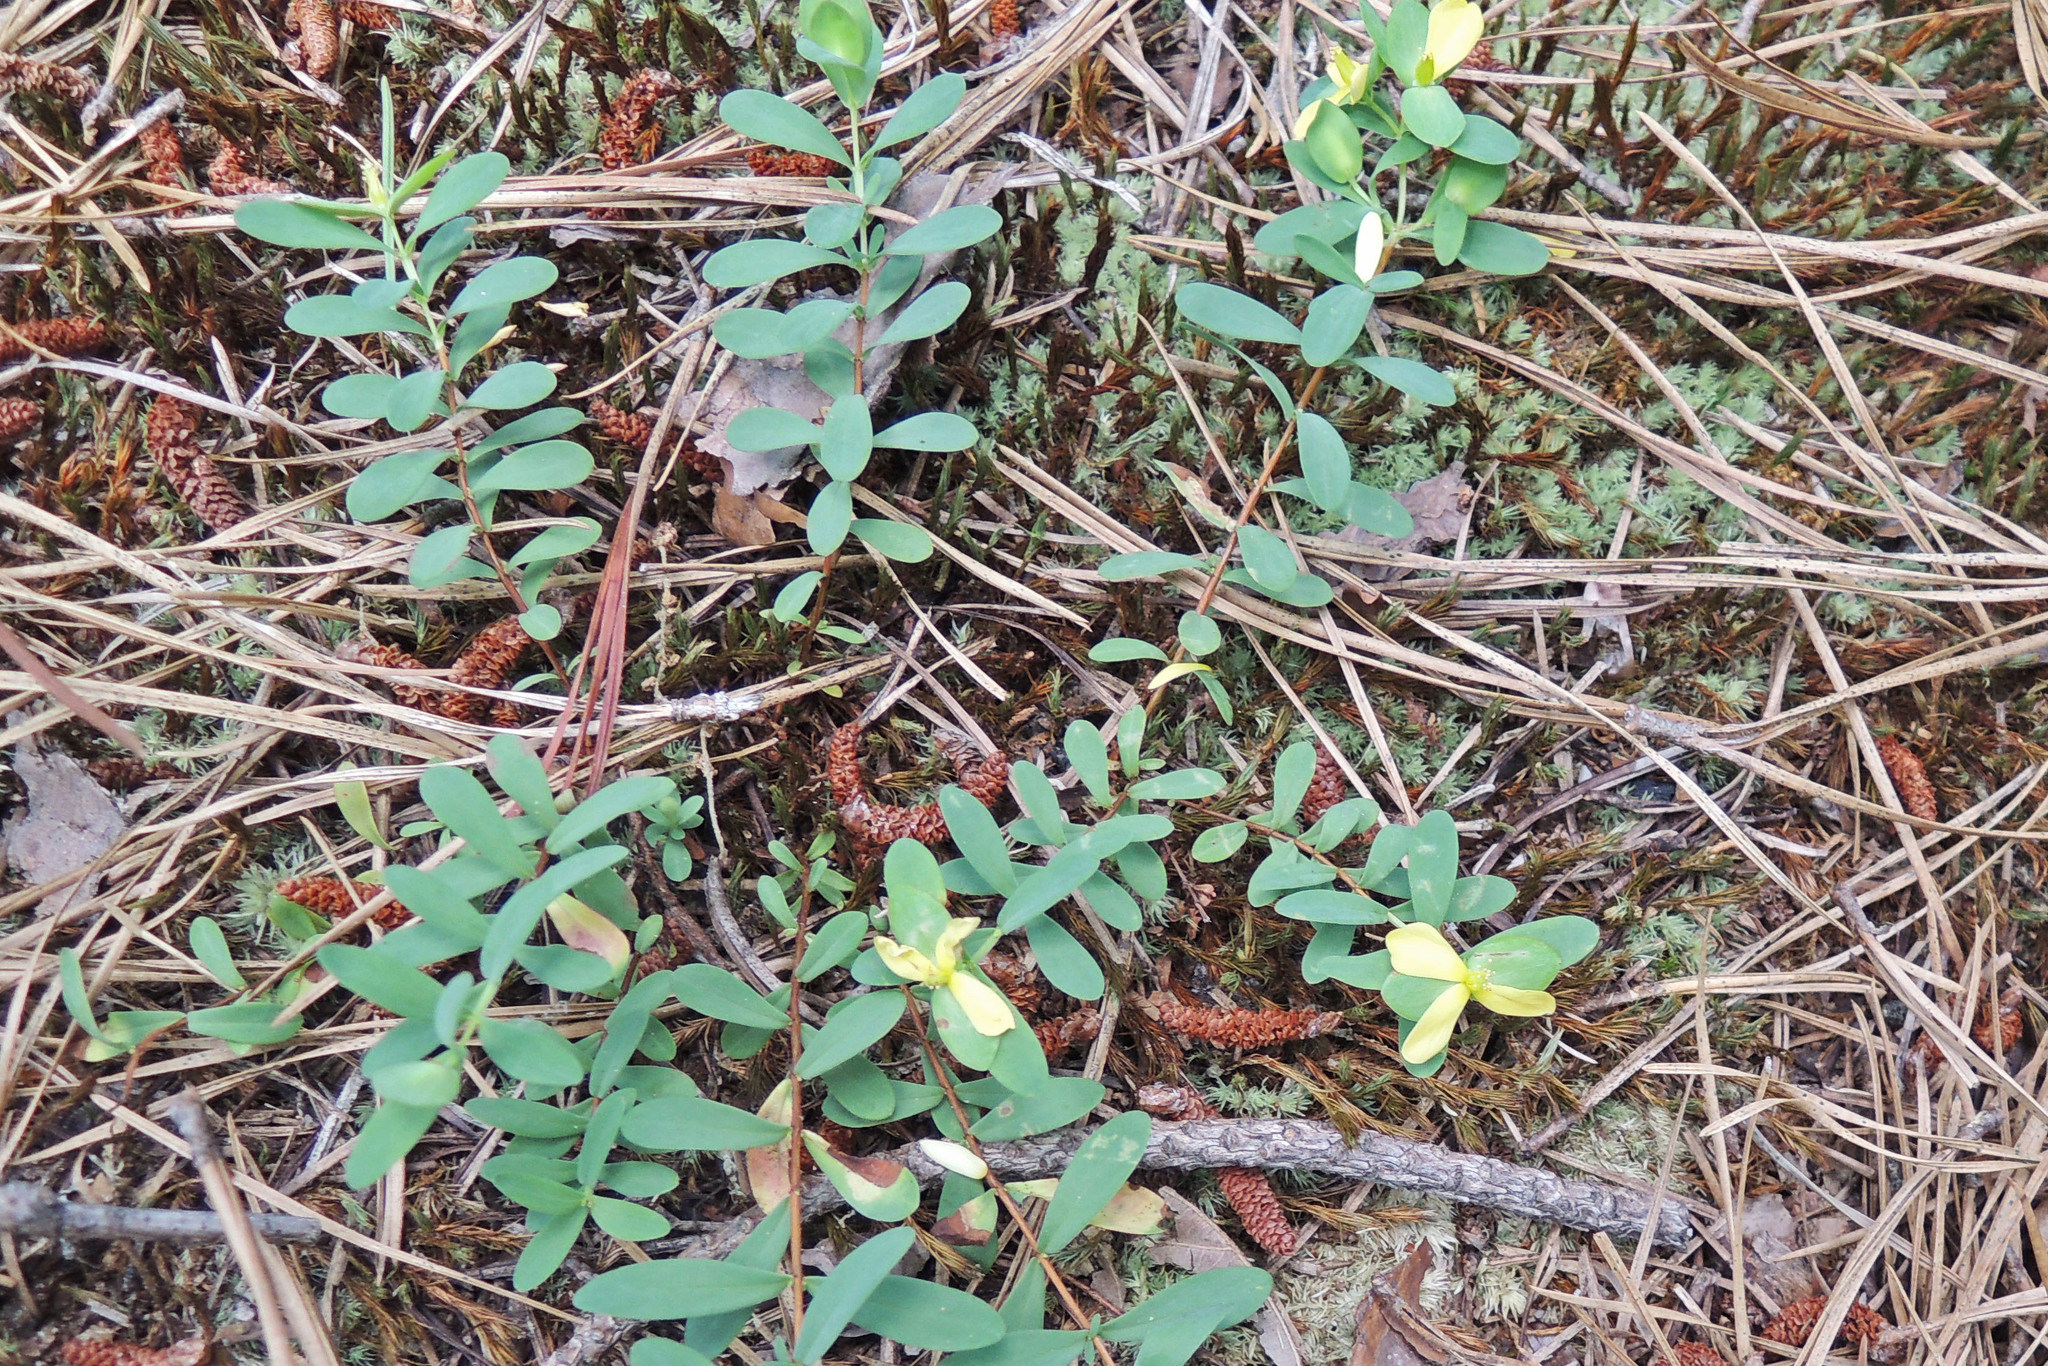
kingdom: Plantae
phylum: Tracheophyta
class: Magnoliopsida
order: Malpighiales
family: Hypericaceae
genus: Hypericum
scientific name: Hypericum hypericoides
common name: St. andrew's cross
